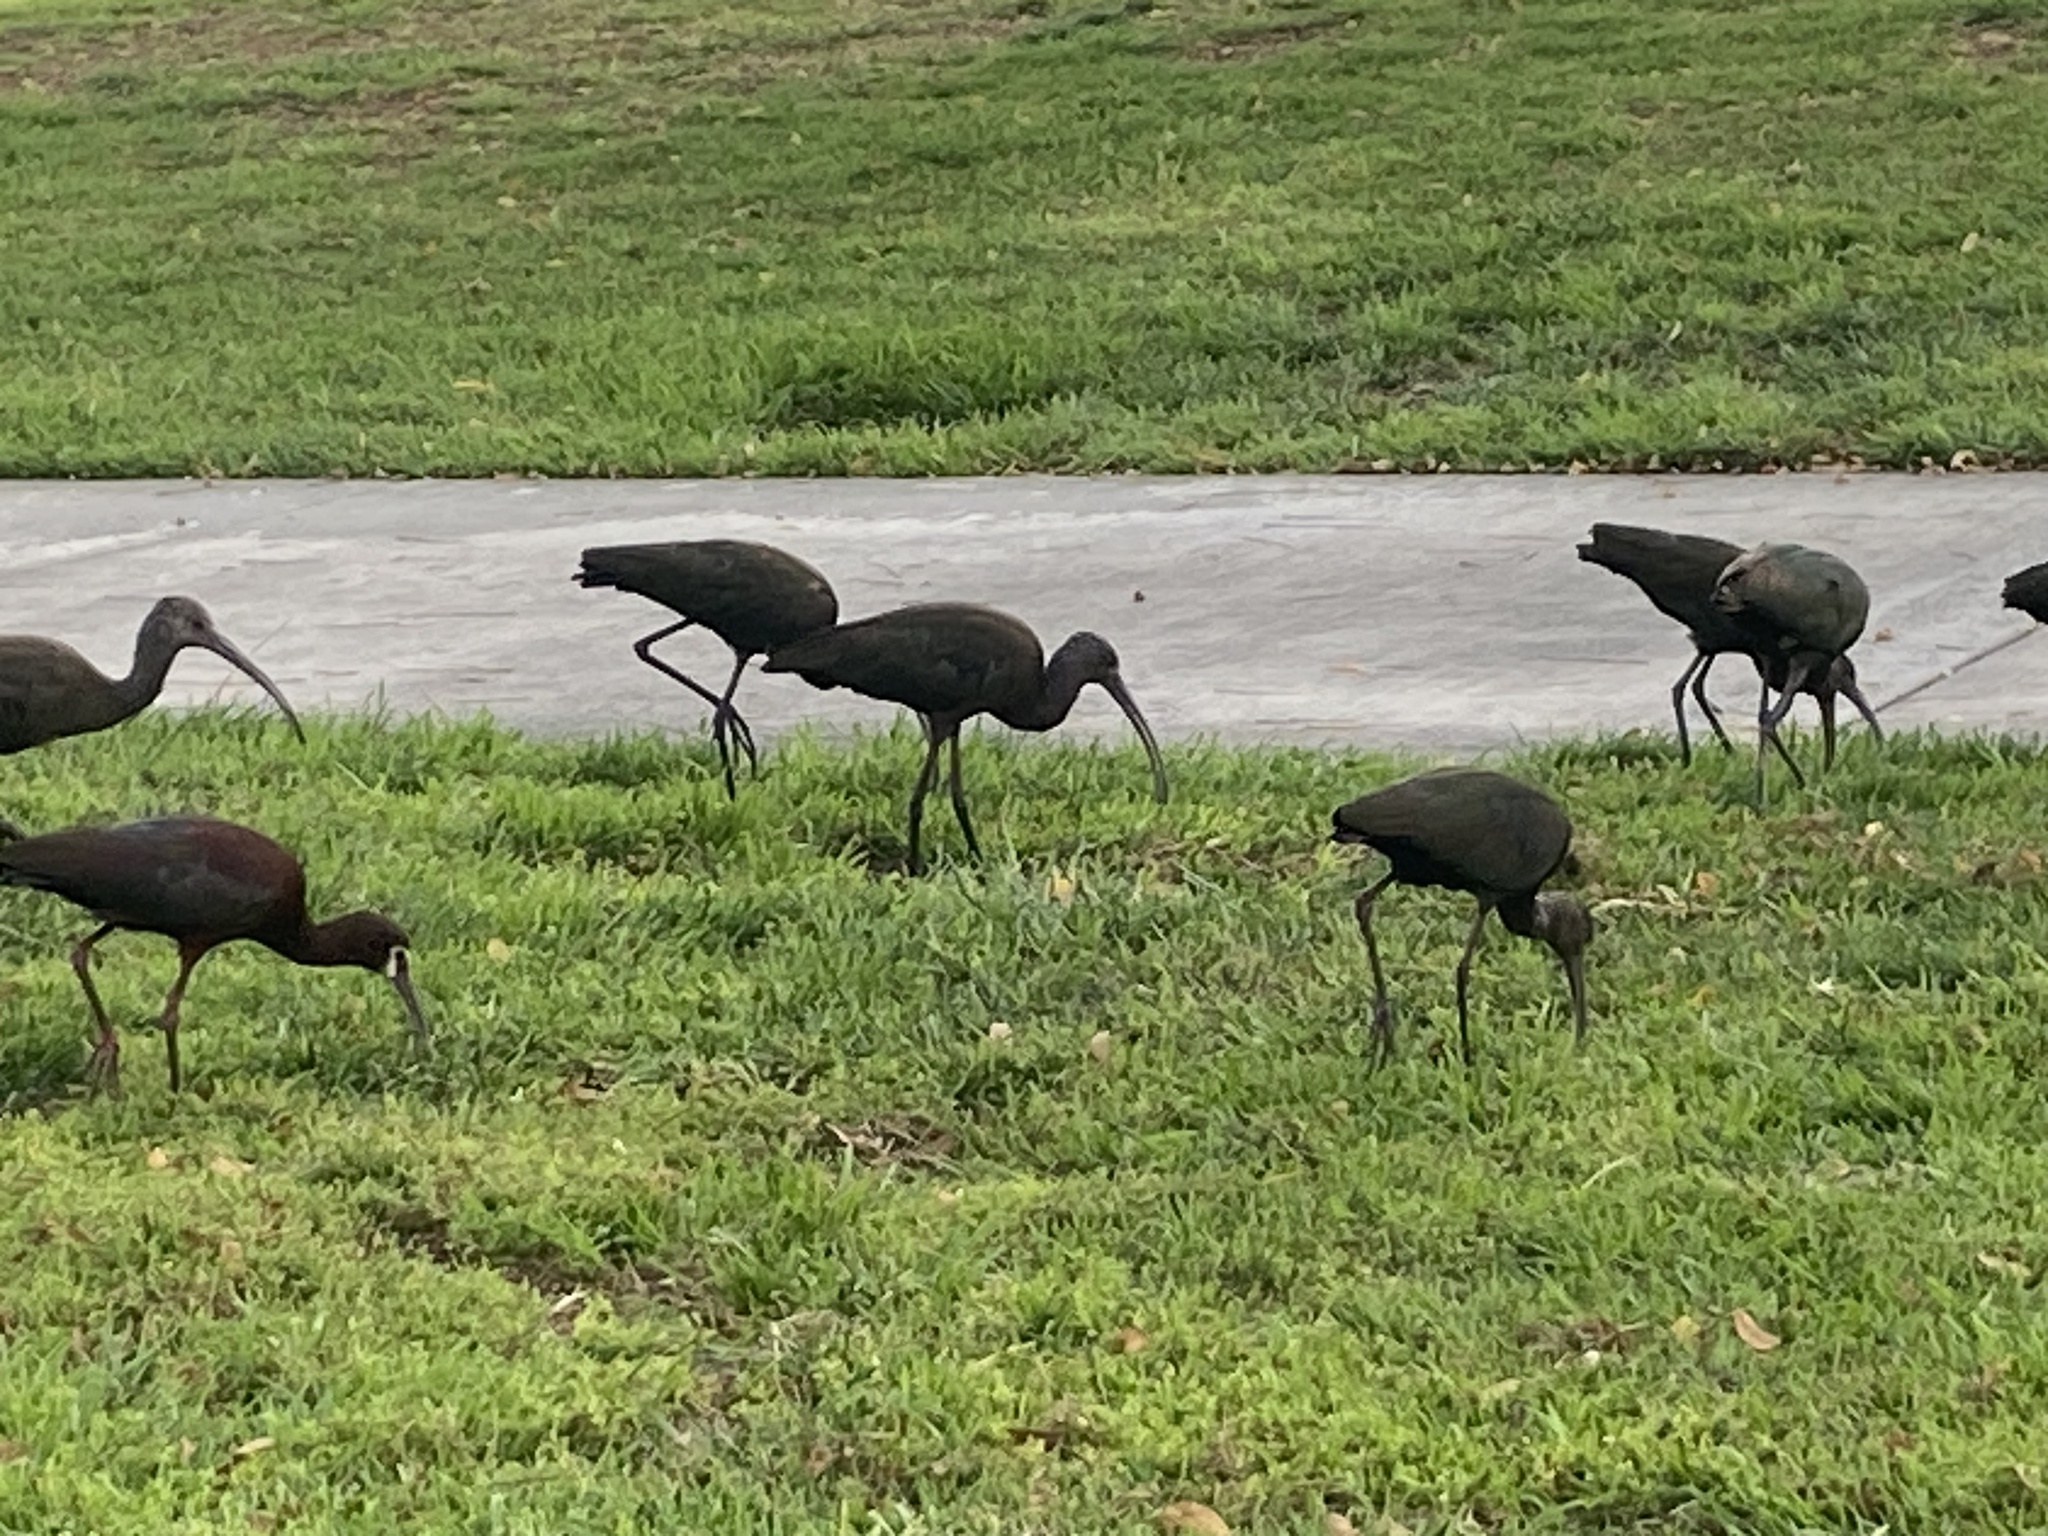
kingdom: Animalia
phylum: Chordata
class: Aves
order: Pelecaniformes
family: Threskiornithidae
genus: Plegadis
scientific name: Plegadis chihi
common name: White-faced ibis
